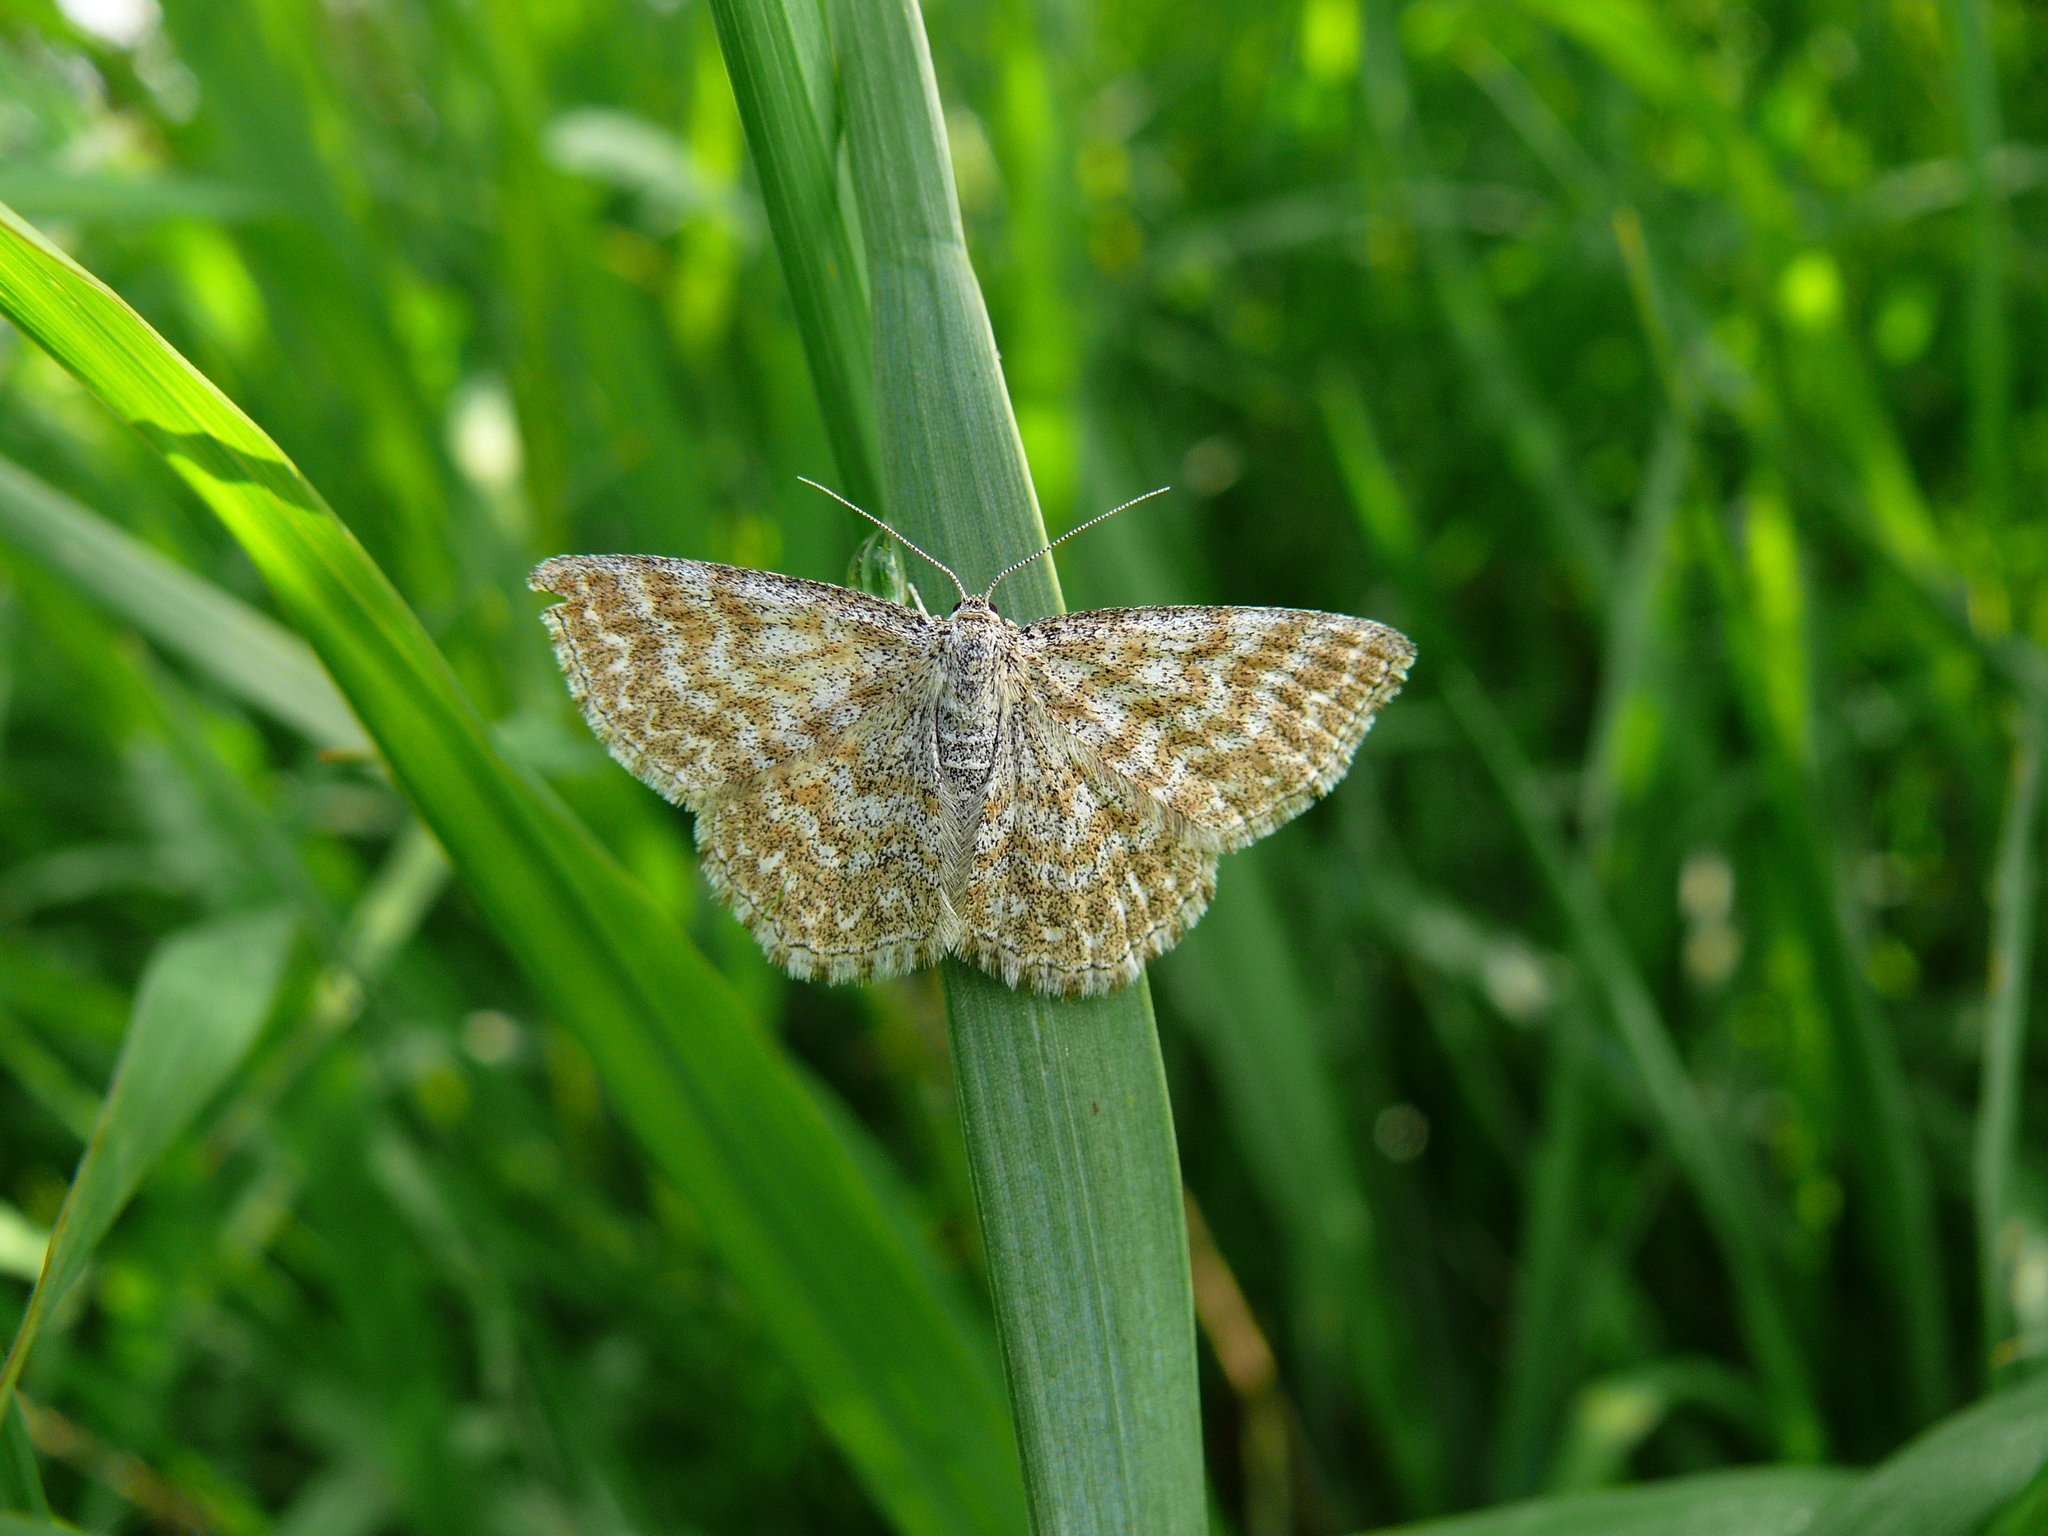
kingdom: Animalia
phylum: Arthropoda
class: Insecta
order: Lepidoptera
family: Geometridae
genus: Scopula
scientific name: Scopula immorata
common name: Lewes wave
